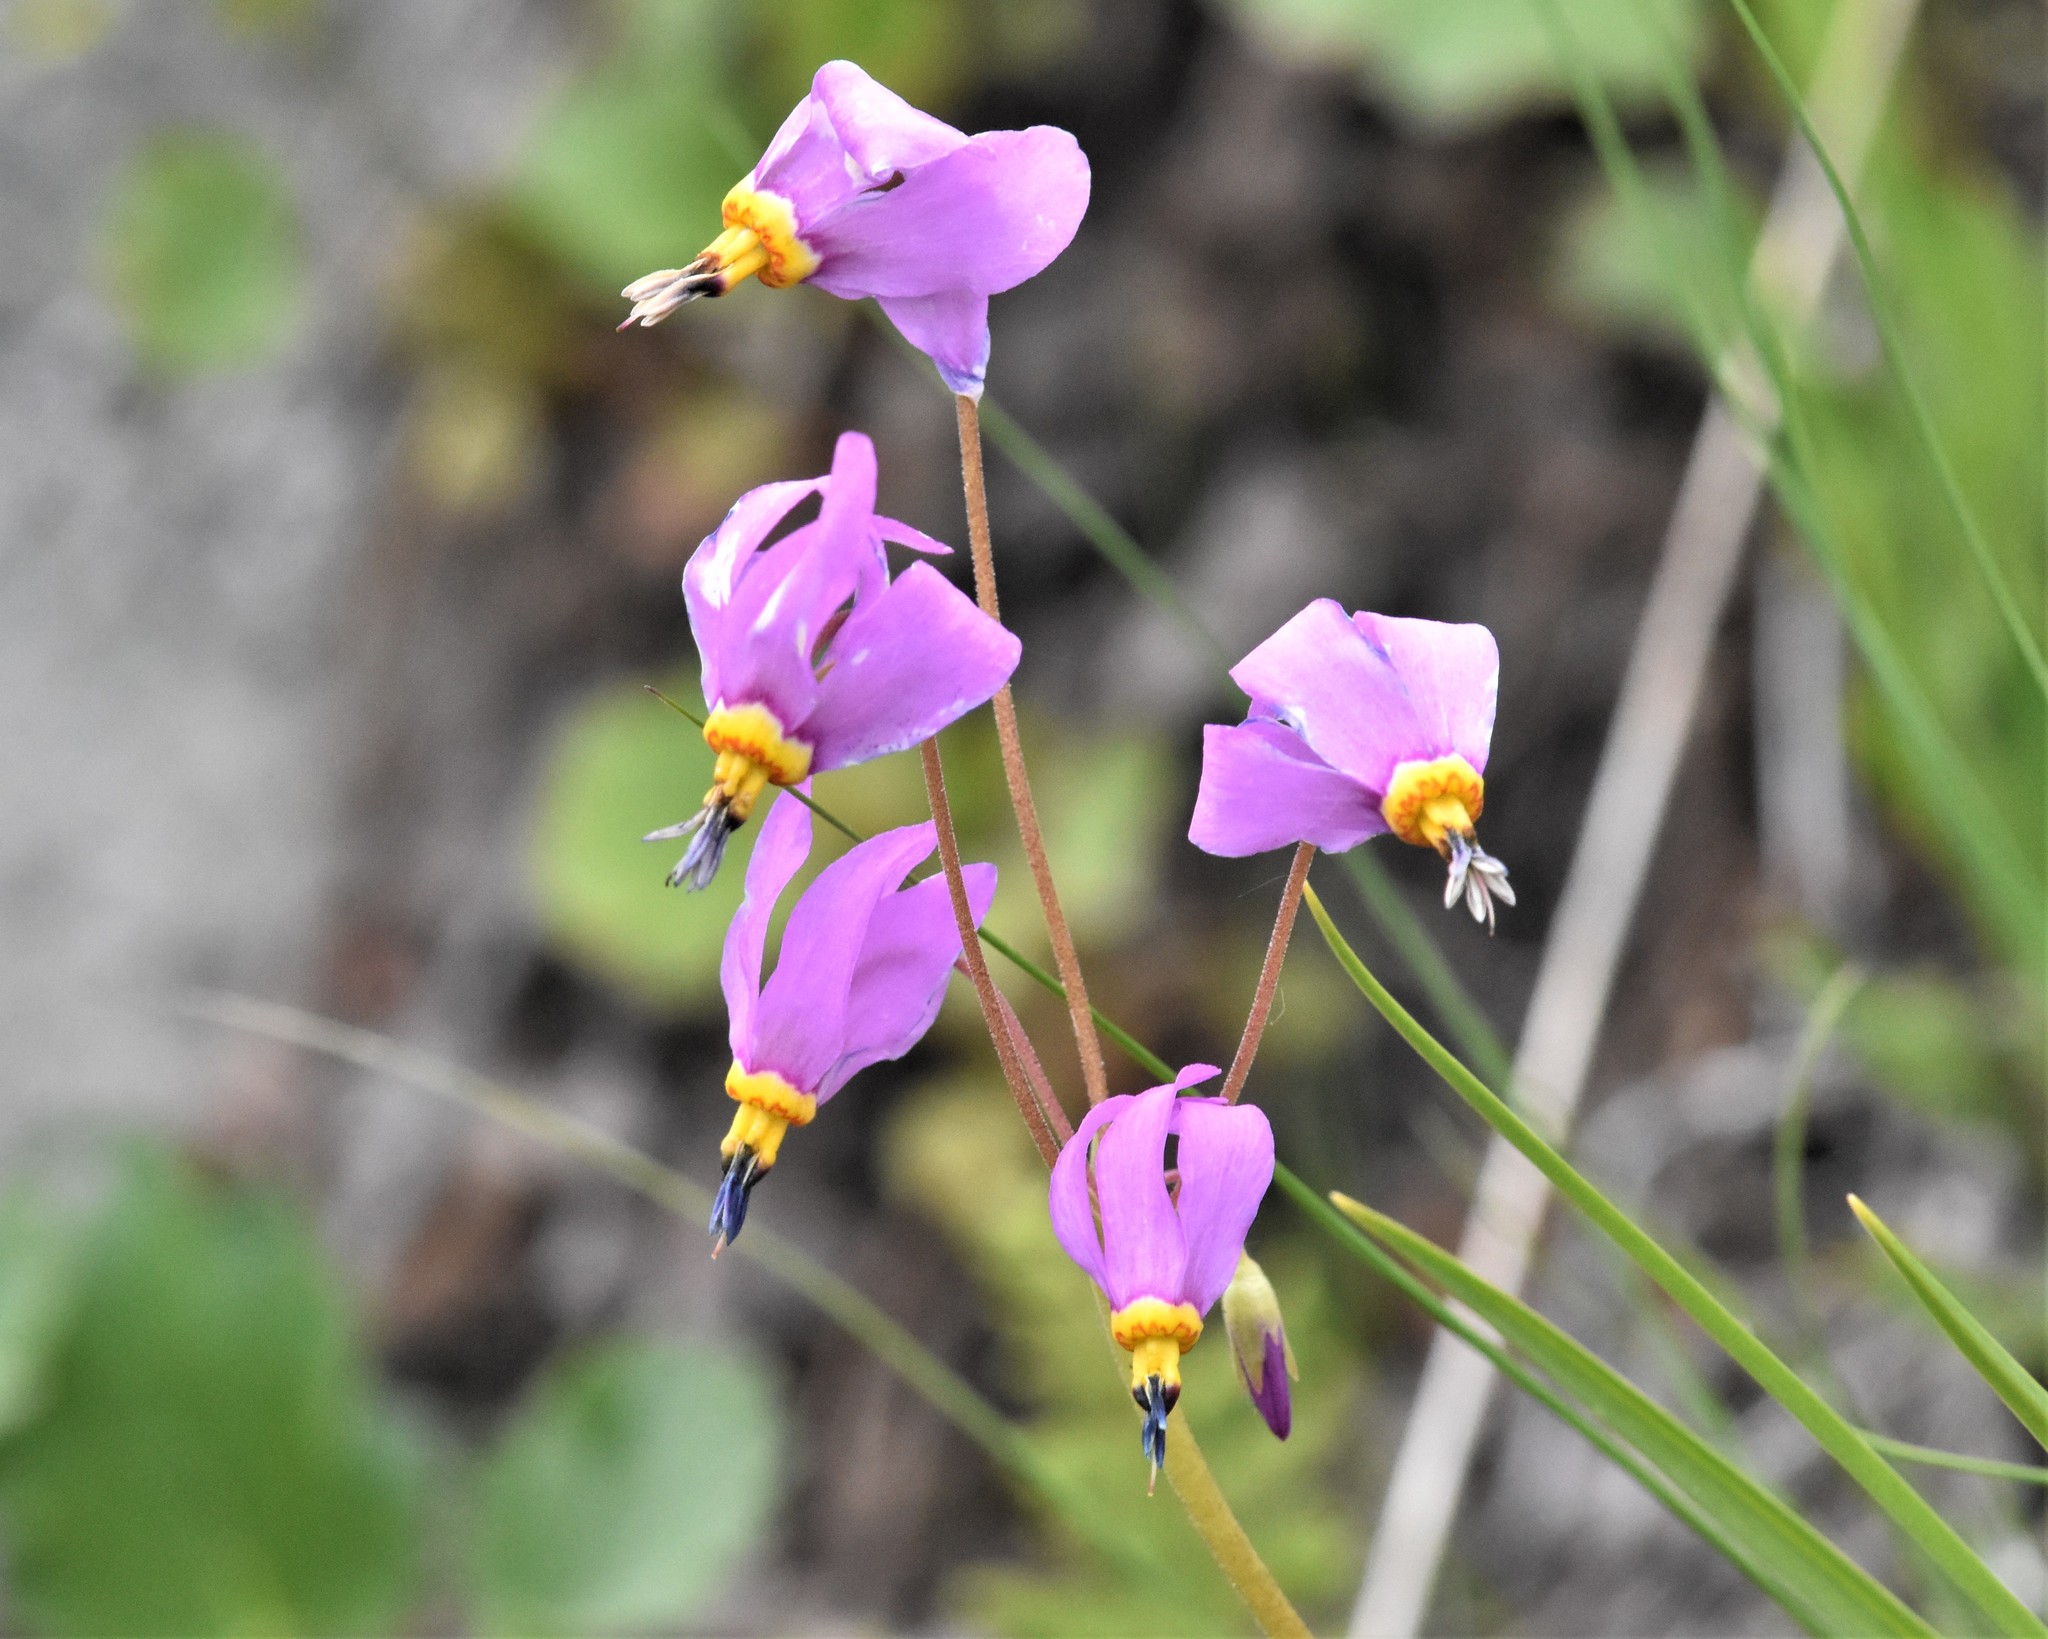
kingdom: Plantae
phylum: Tracheophyta
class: Magnoliopsida
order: Ericales
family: Primulaceae
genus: Dodecatheon
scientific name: Dodecatheon pulchellum
